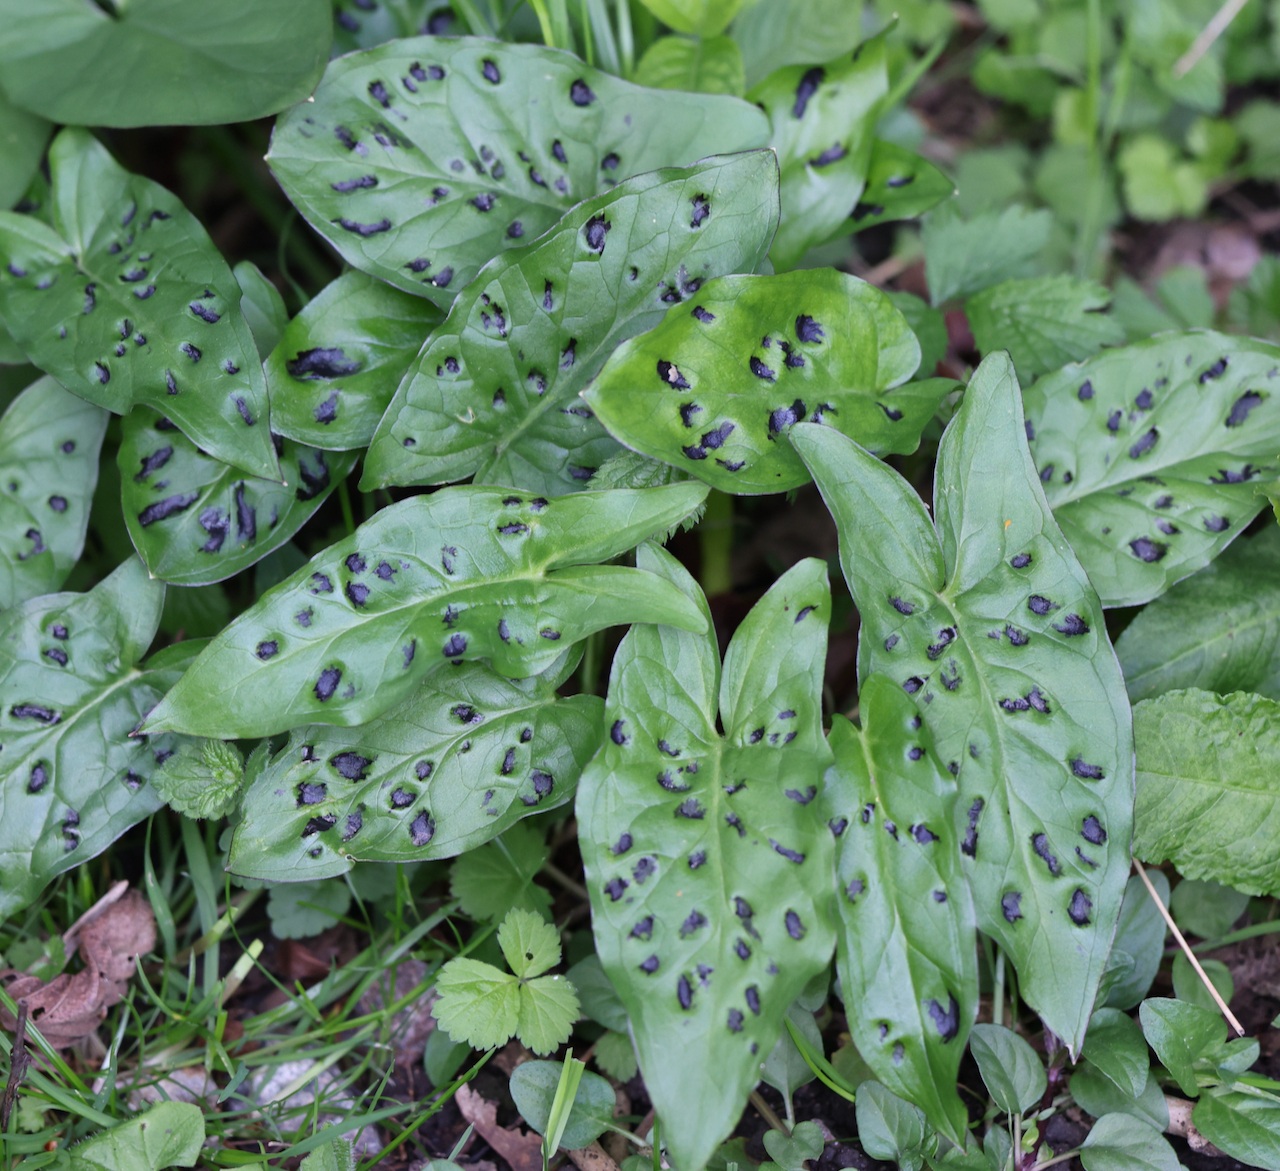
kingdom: Plantae
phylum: Tracheophyta
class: Liliopsida
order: Alismatales
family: Araceae
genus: Arum
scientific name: Arum maculatum
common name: Lords-and-ladies
